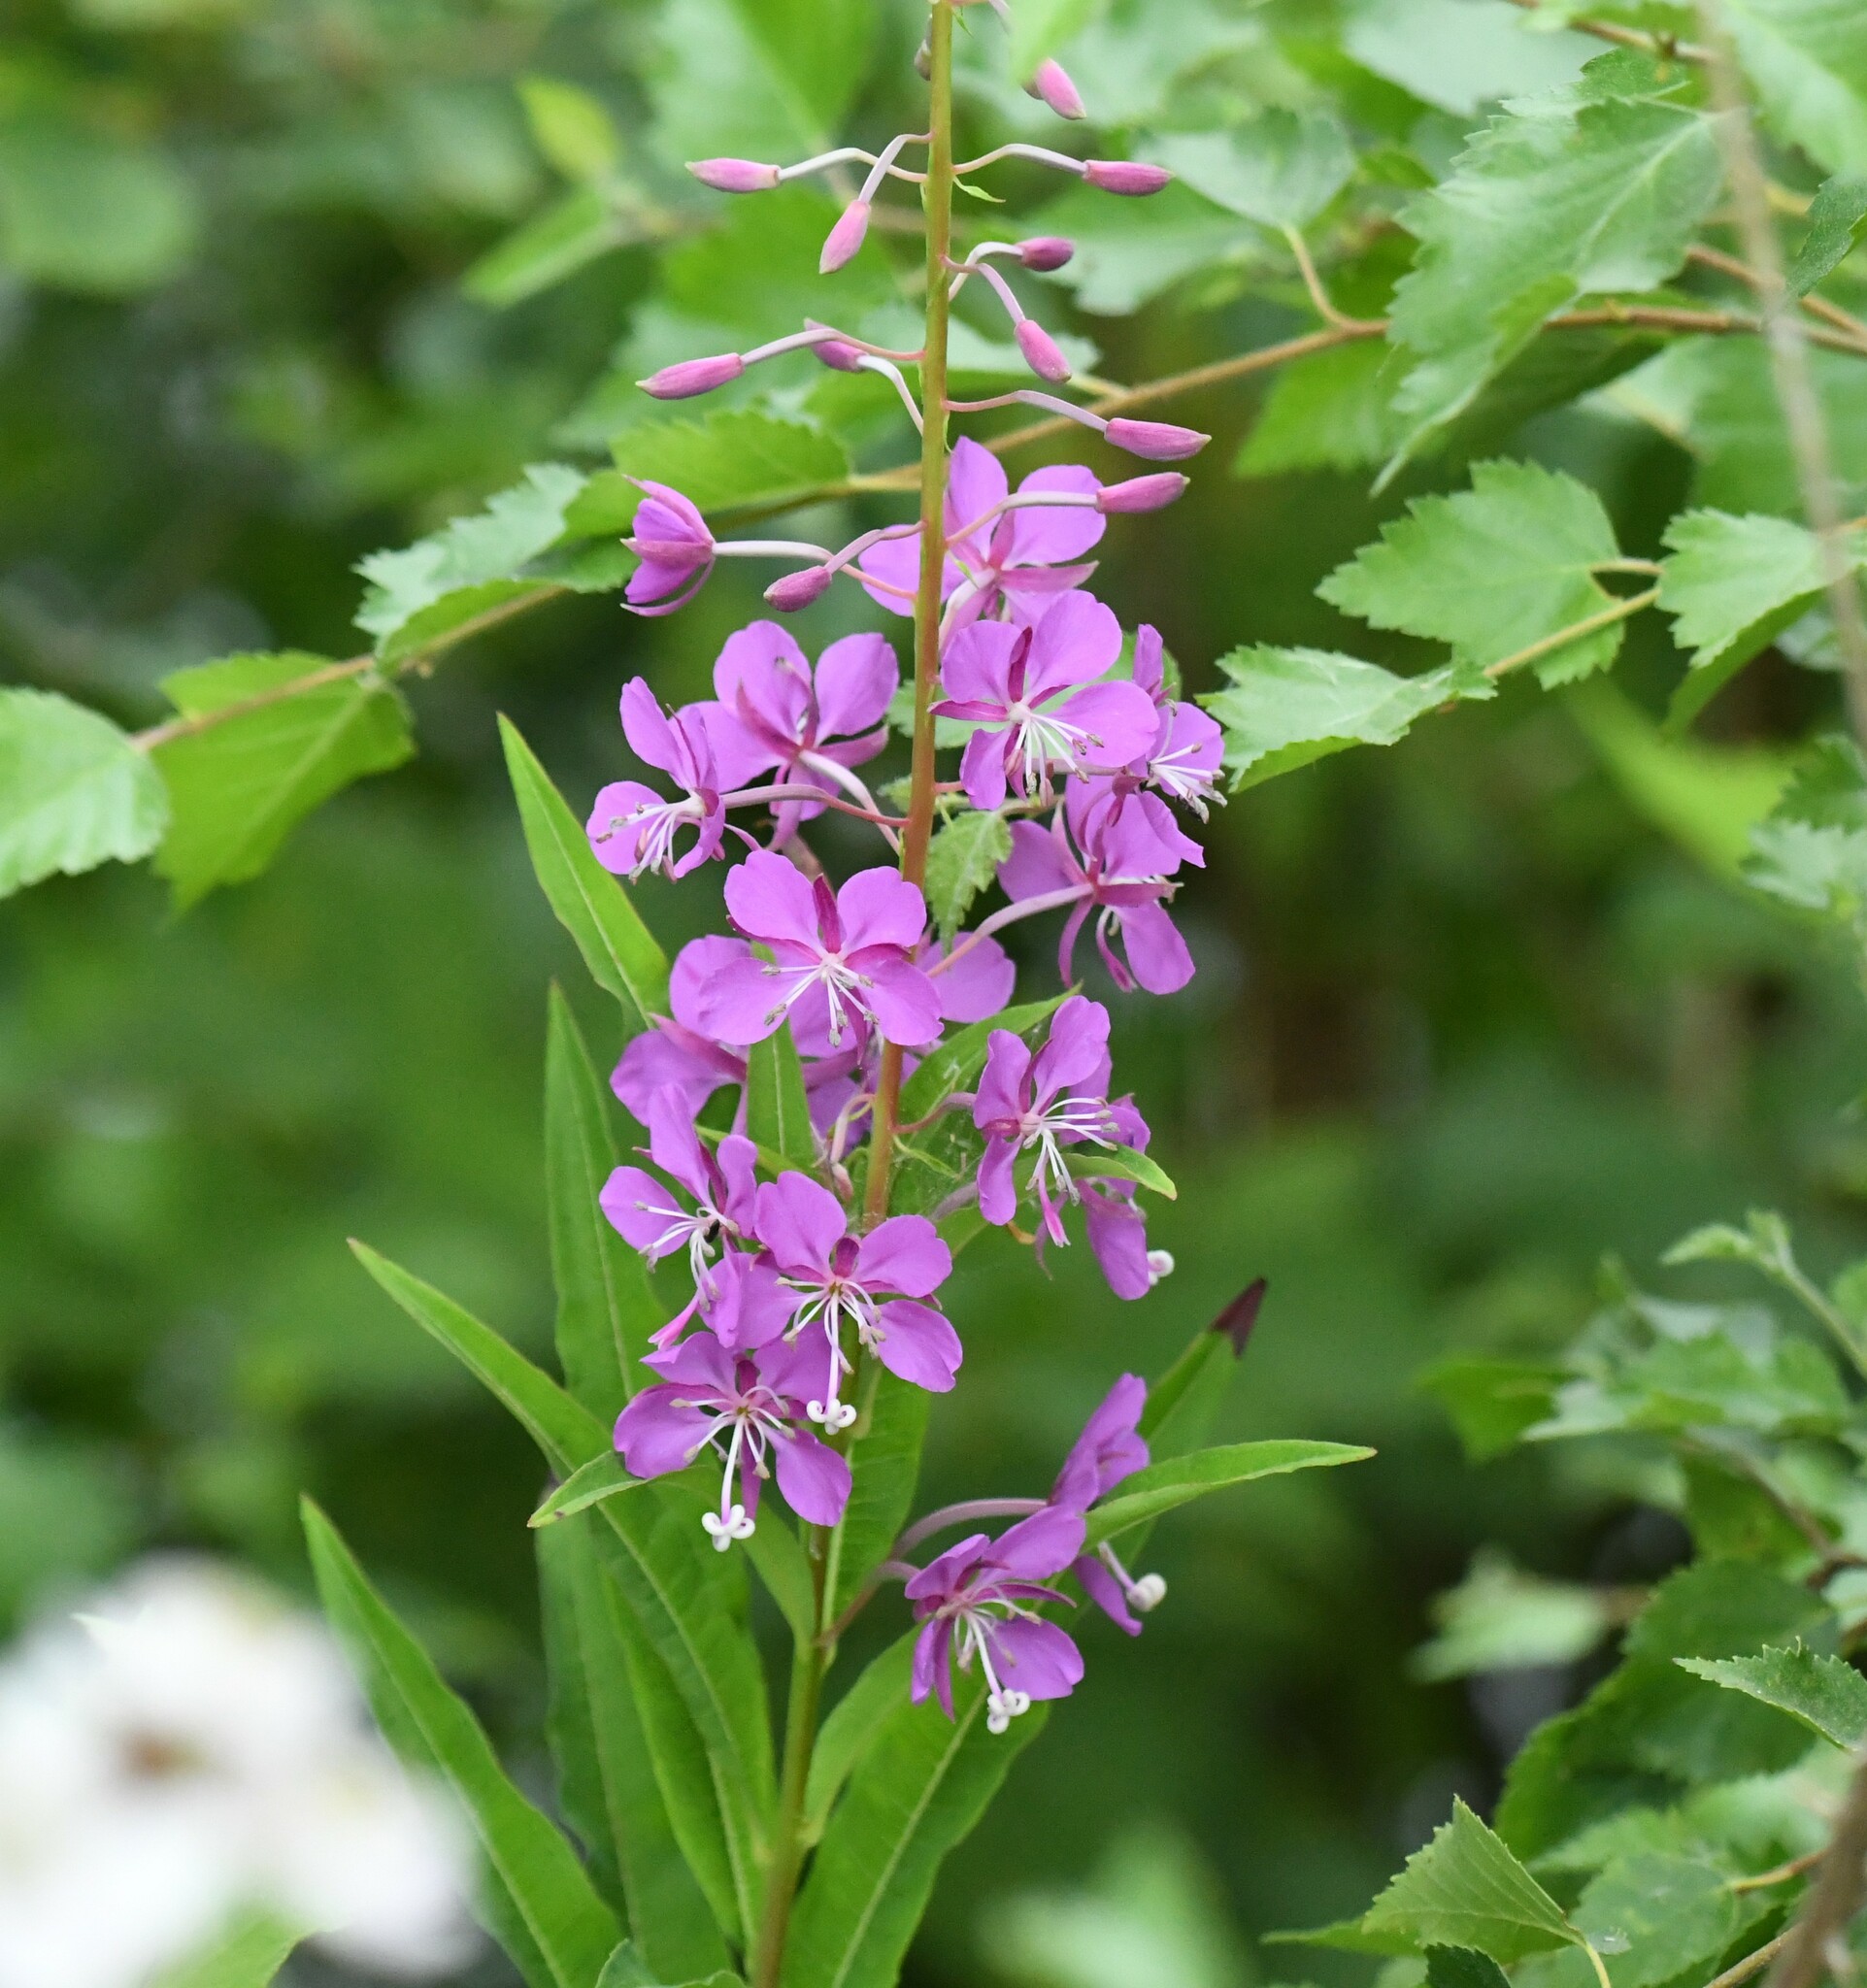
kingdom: Plantae
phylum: Tracheophyta
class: Magnoliopsida
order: Myrtales
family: Onagraceae
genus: Chamaenerion
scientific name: Chamaenerion angustifolium
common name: Fireweed
